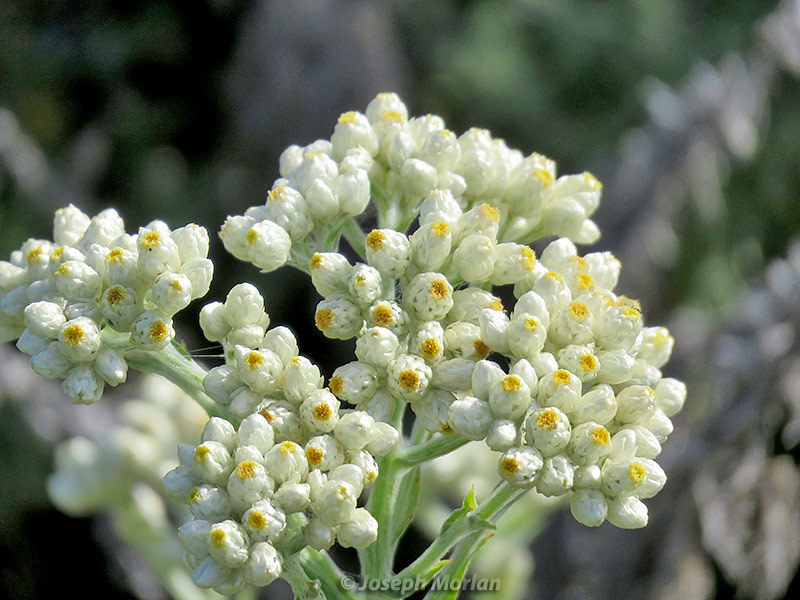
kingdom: Plantae
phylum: Tracheophyta
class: Magnoliopsida
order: Asterales
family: Asteraceae
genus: Pseudognaphalium
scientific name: Pseudognaphalium californicum
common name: California rabbit-tobacco
